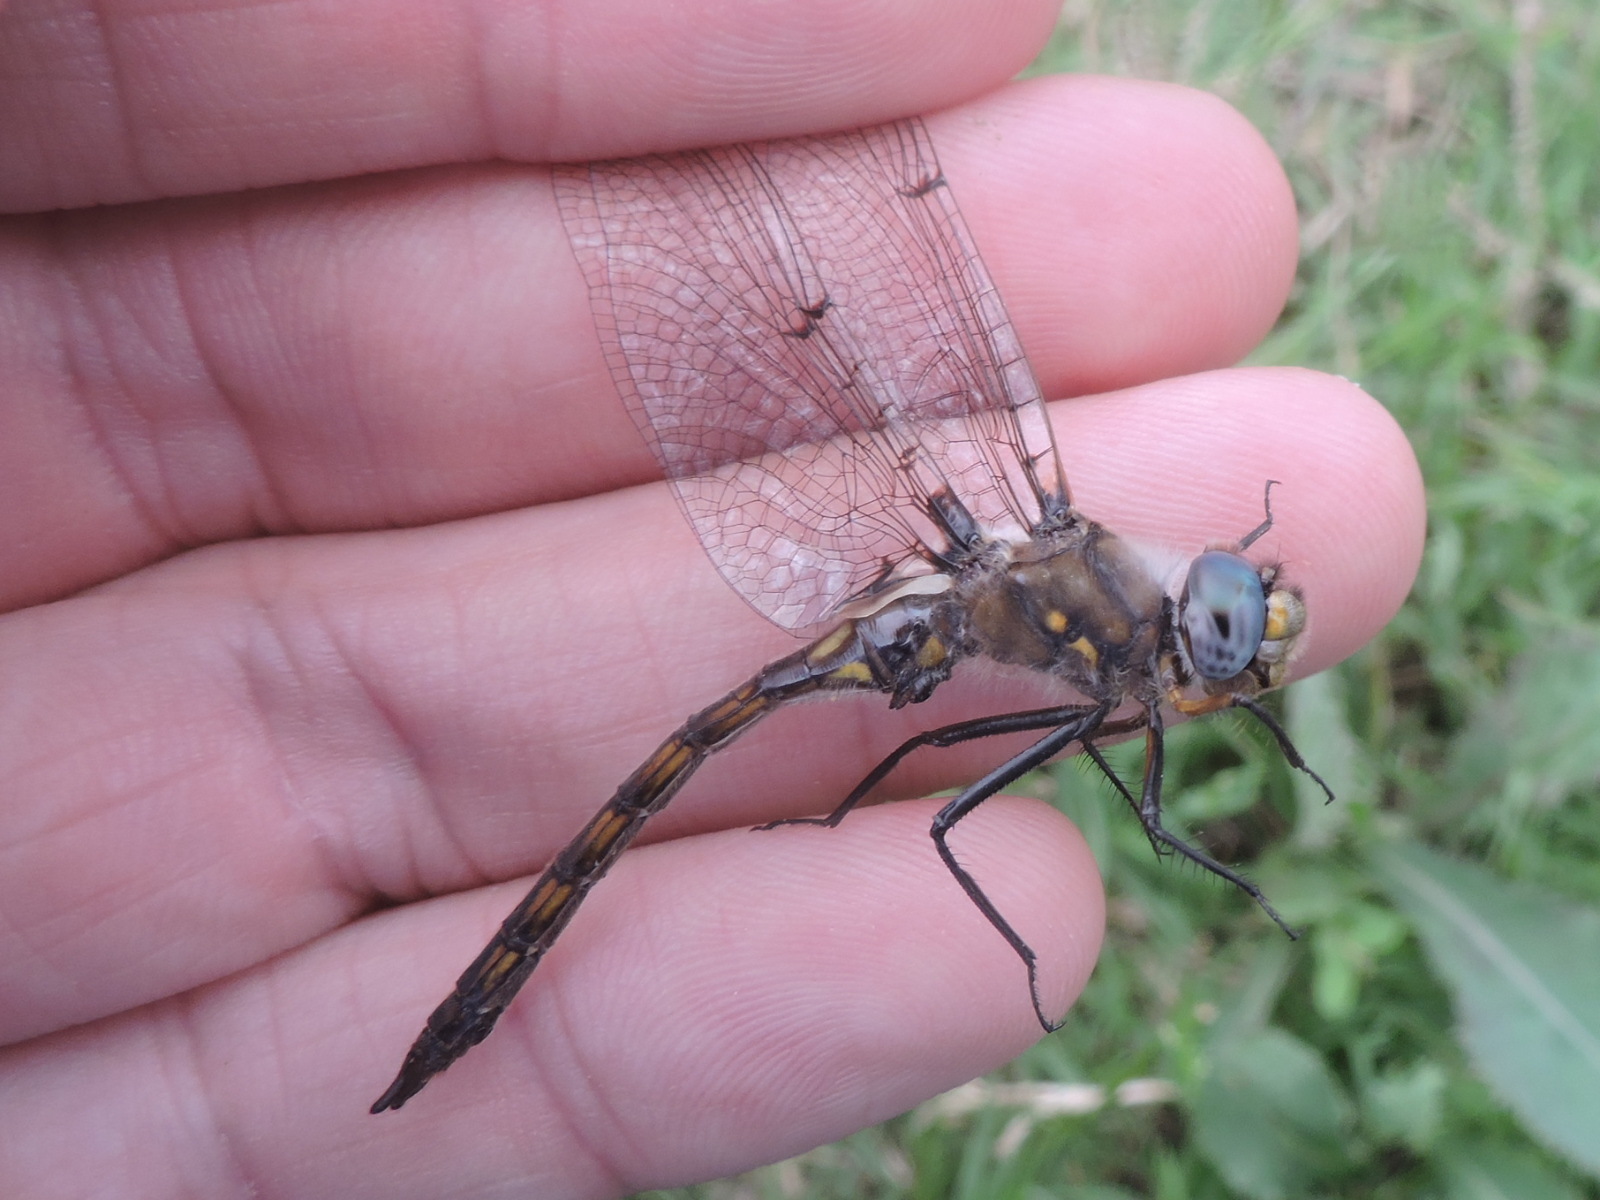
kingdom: Animalia
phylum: Arthropoda
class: Insecta
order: Odonata
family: Corduliidae
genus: Epitheca
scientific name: Epitheca petechialis
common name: Dot-winged baskettail
